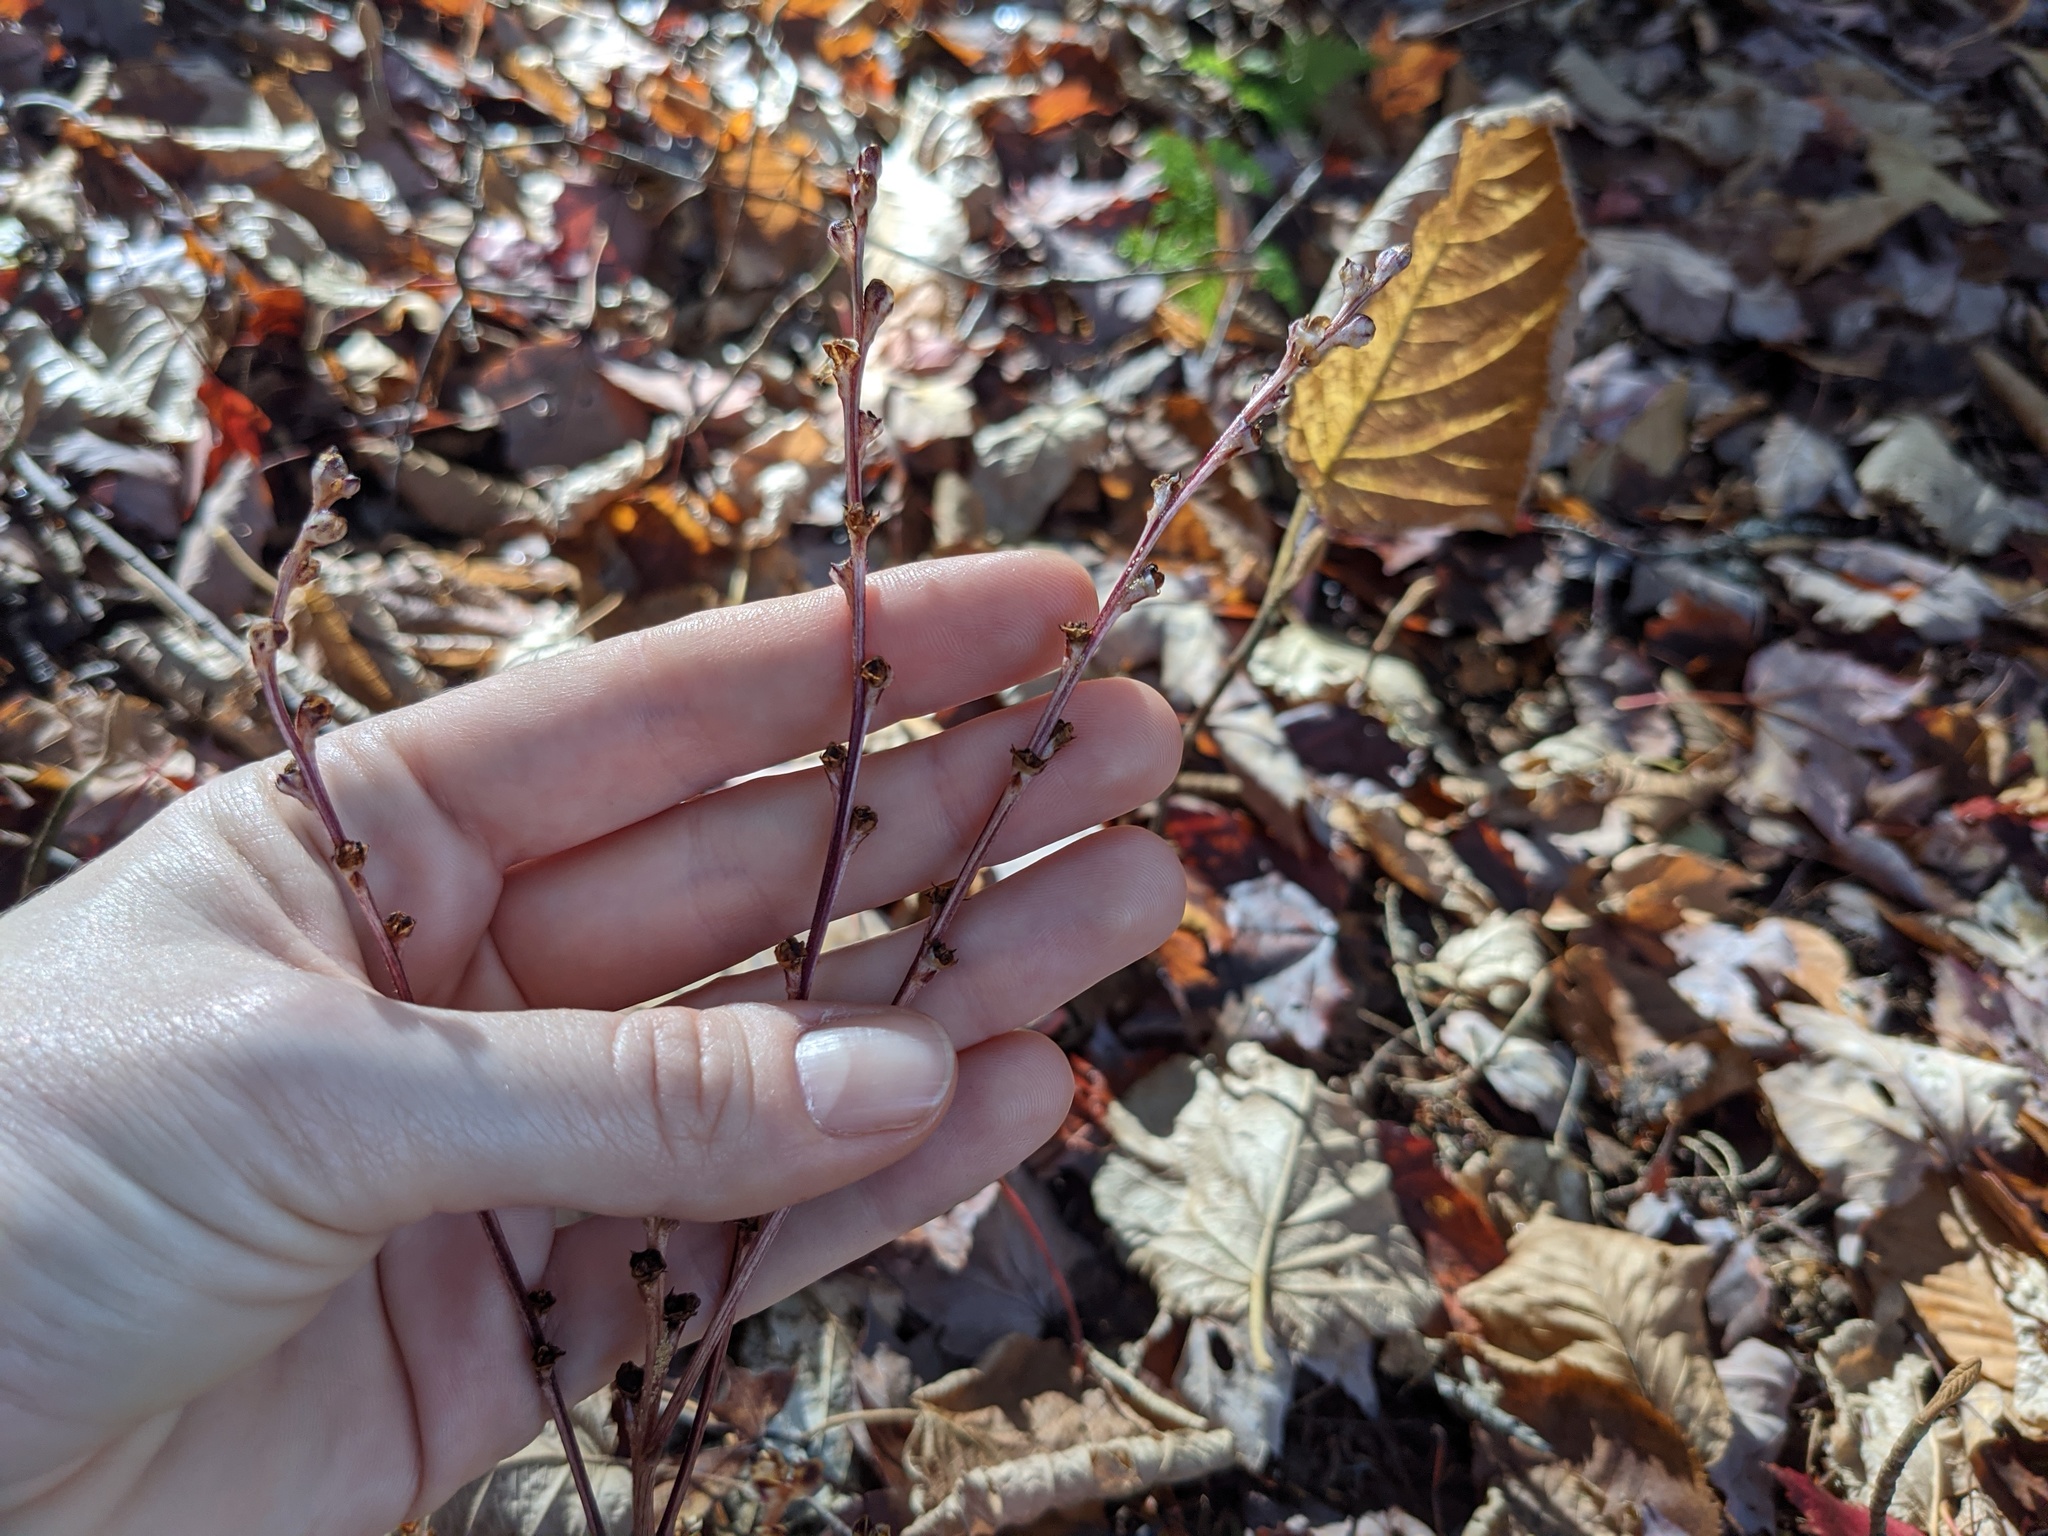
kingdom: Plantae
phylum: Tracheophyta
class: Magnoliopsida
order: Lamiales
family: Orobanchaceae
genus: Epifagus
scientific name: Epifagus virginiana
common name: Beechdrops
